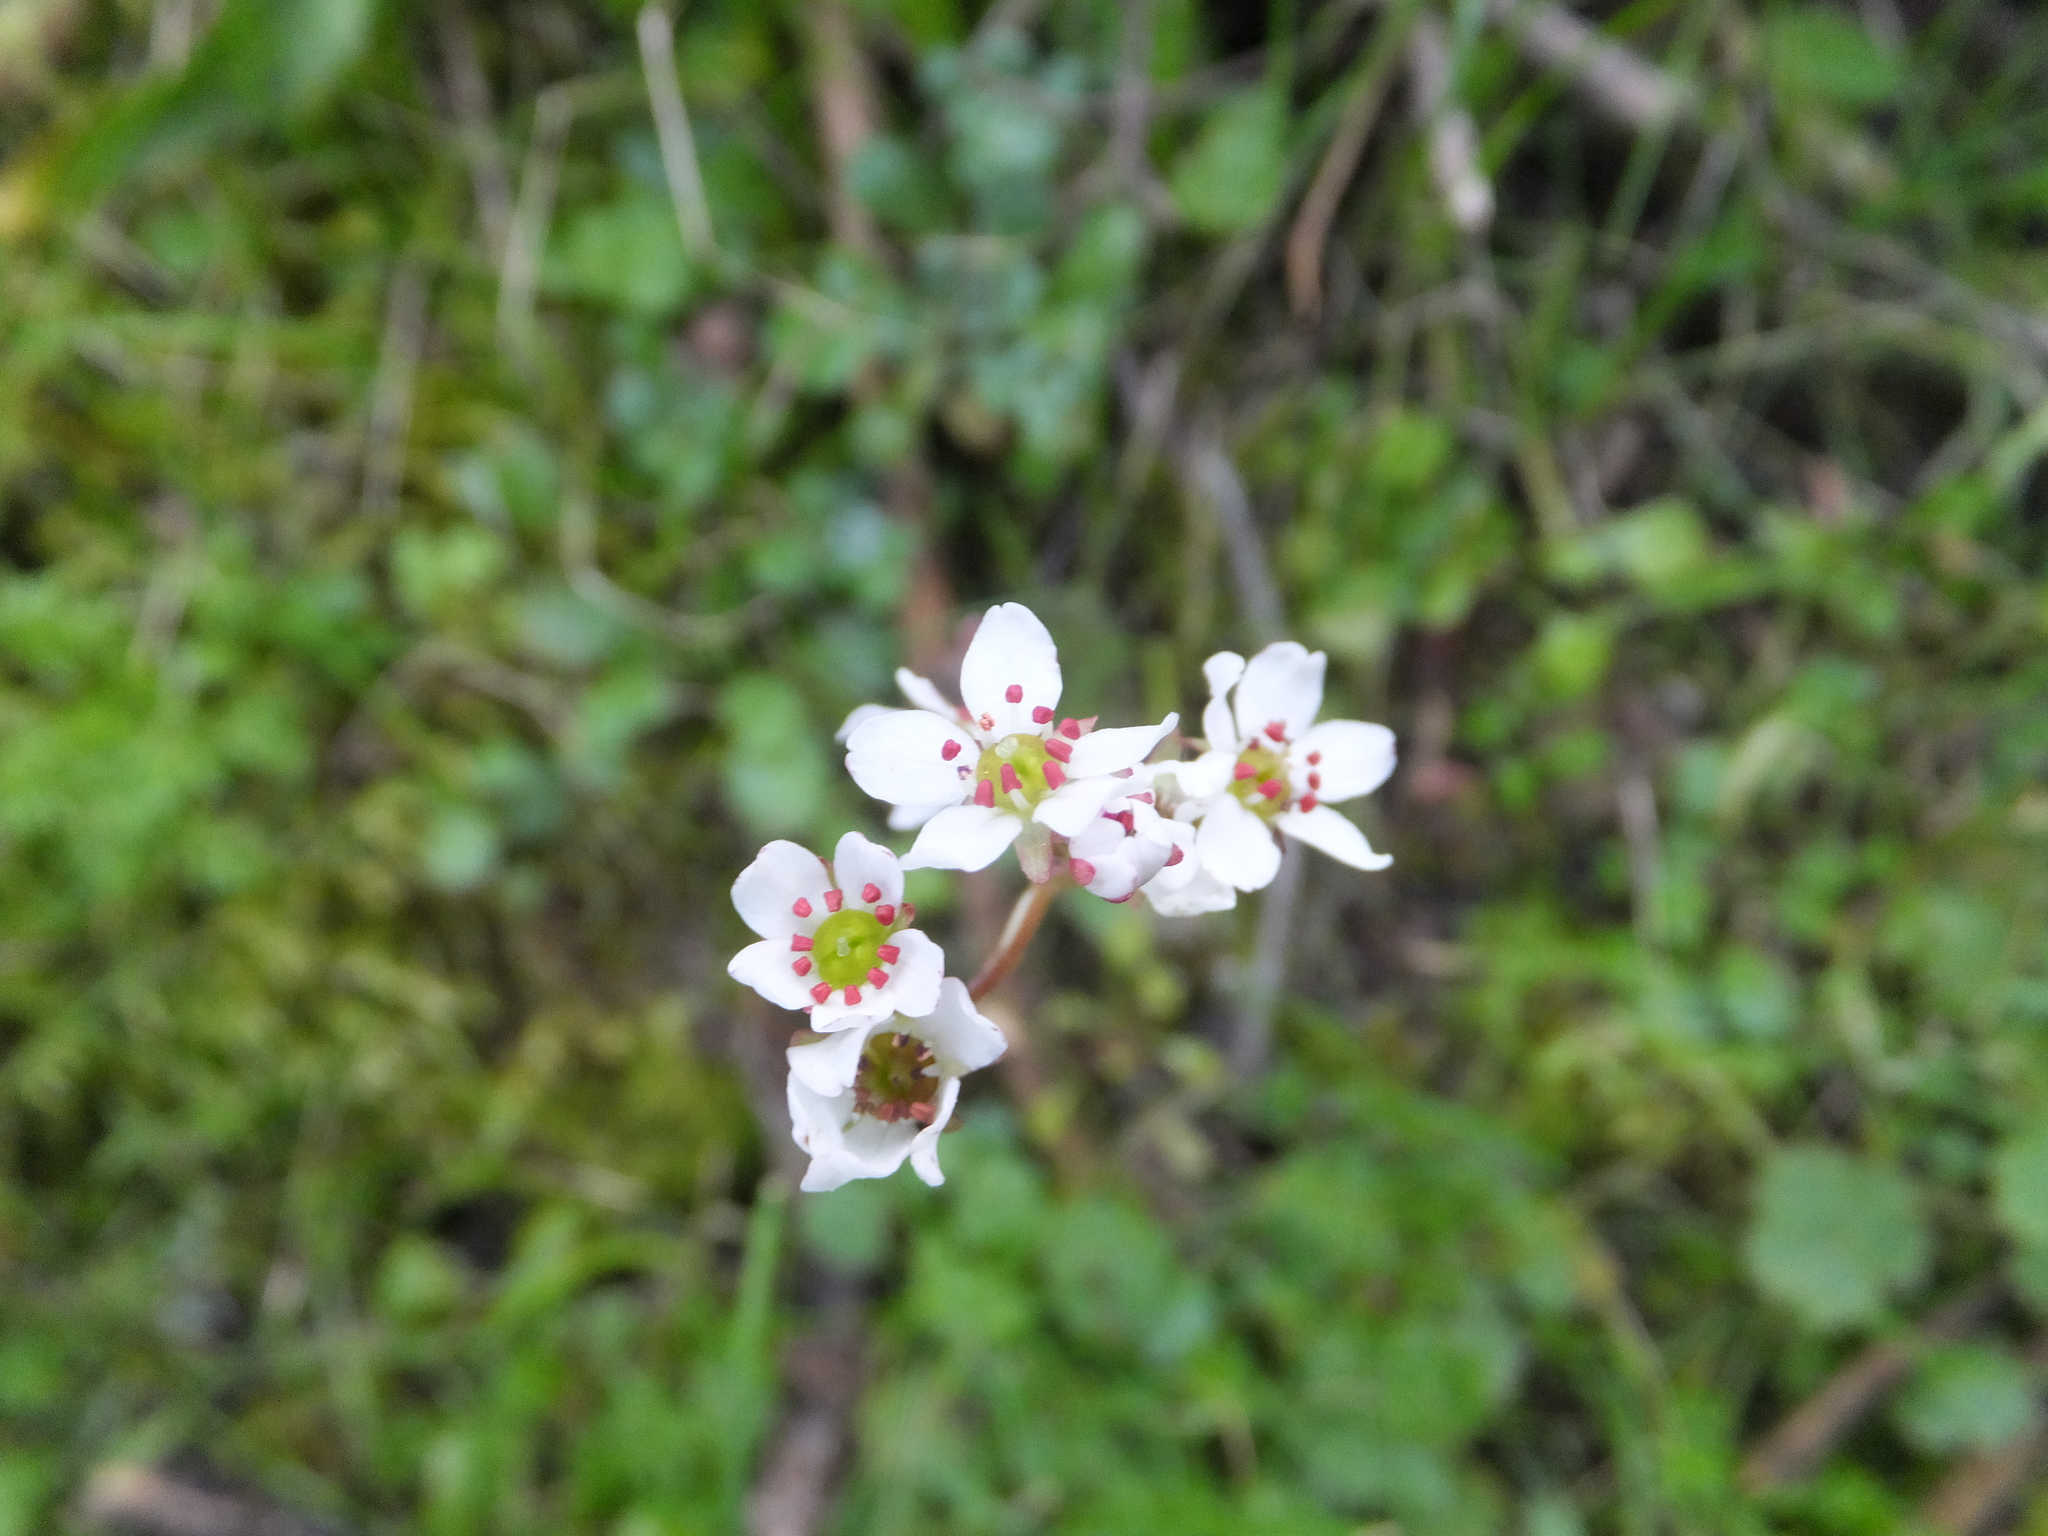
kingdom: Plantae
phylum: Tracheophyta
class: Magnoliopsida
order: Saxifragales
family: Saxifragaceae
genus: Micranthes
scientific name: Micranthes californica
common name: California saxifrage
